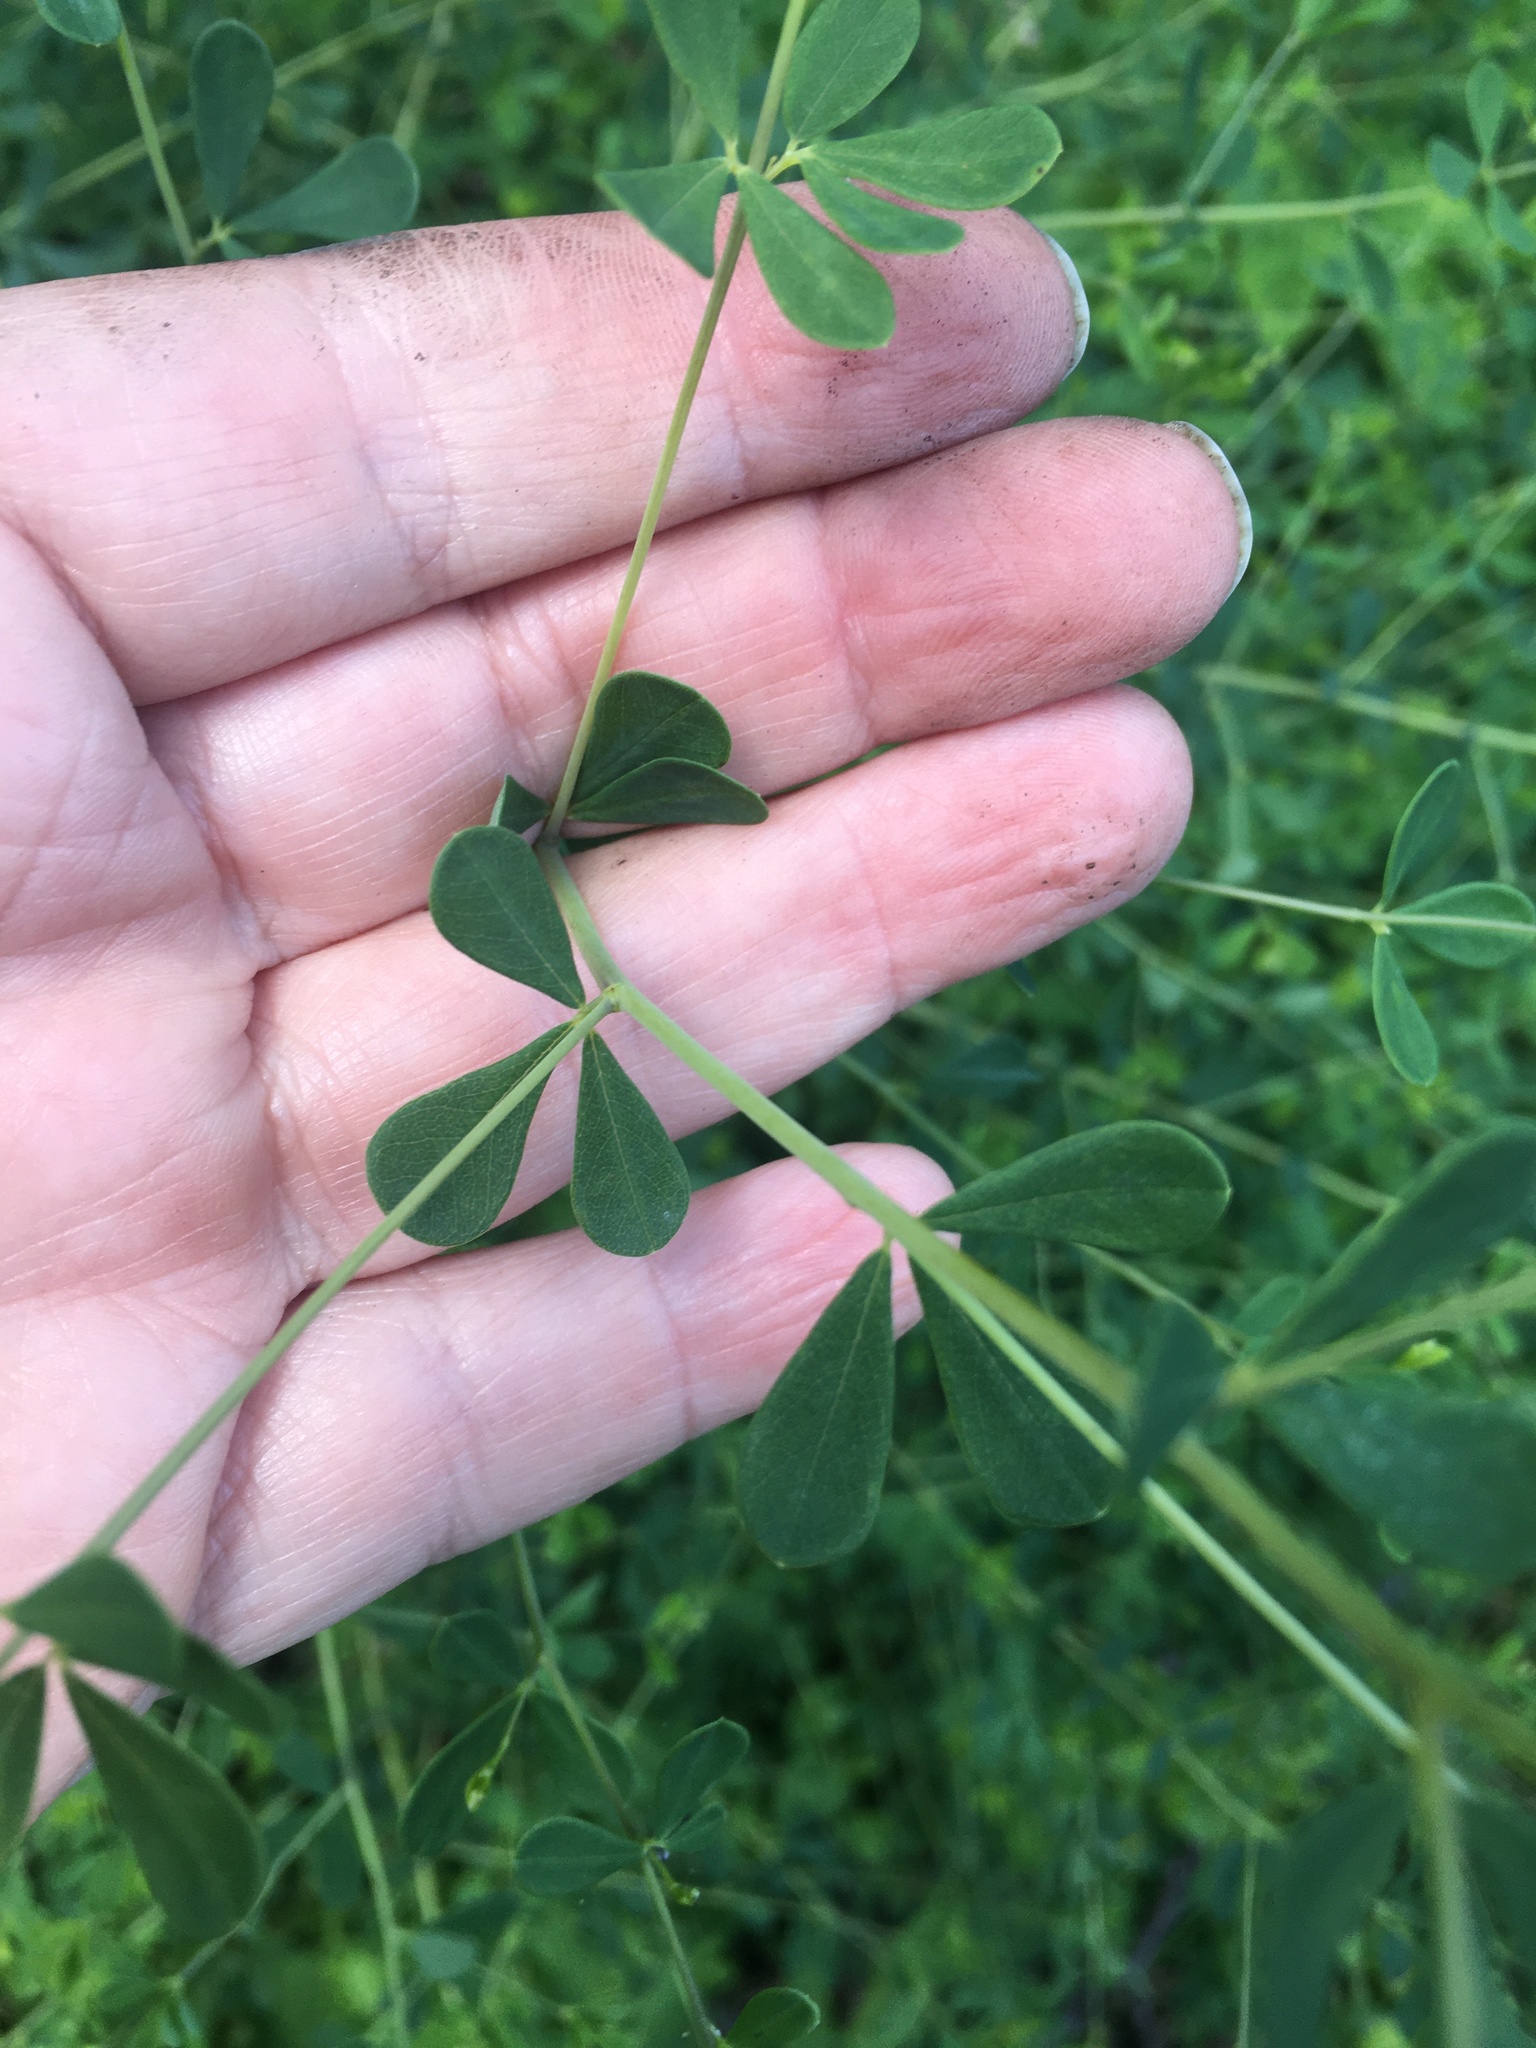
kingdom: Plantae
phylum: Tracheophyta
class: Magnoliopsida
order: Fabales
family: Fabaceae
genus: Baptisia
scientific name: Baptisia tinctoria
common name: Wild indigo
